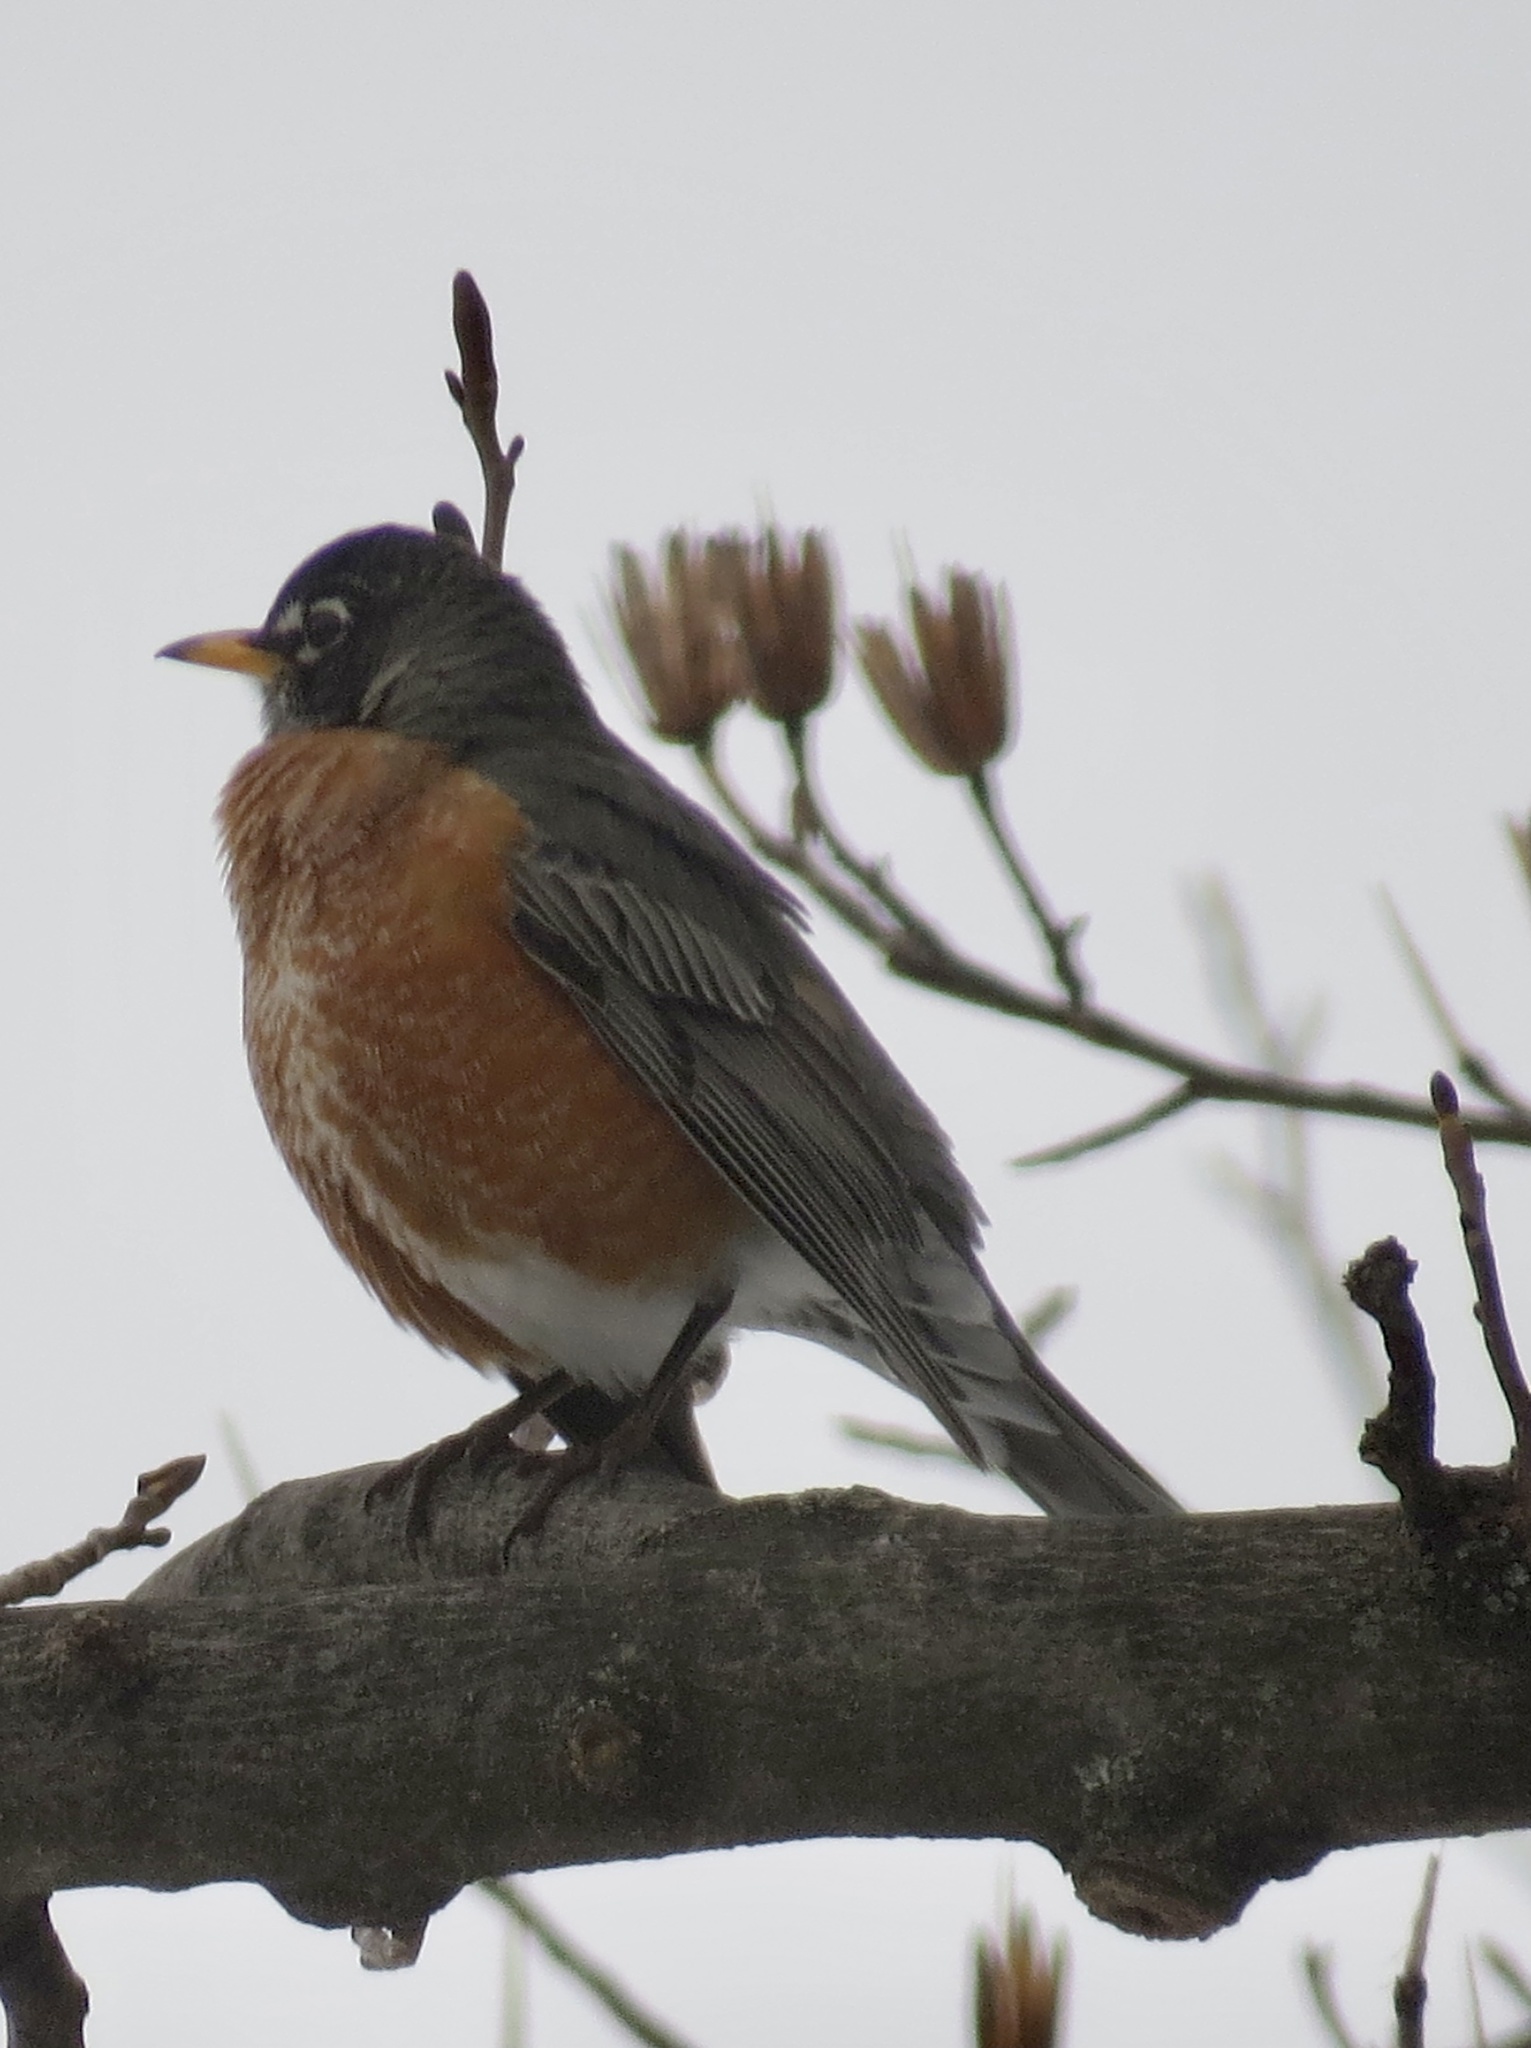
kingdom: Animalia
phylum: Chordata
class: Aves
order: Passeriformes
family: Turdidae
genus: Turdus
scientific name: Turdus migratorius
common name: American robin
